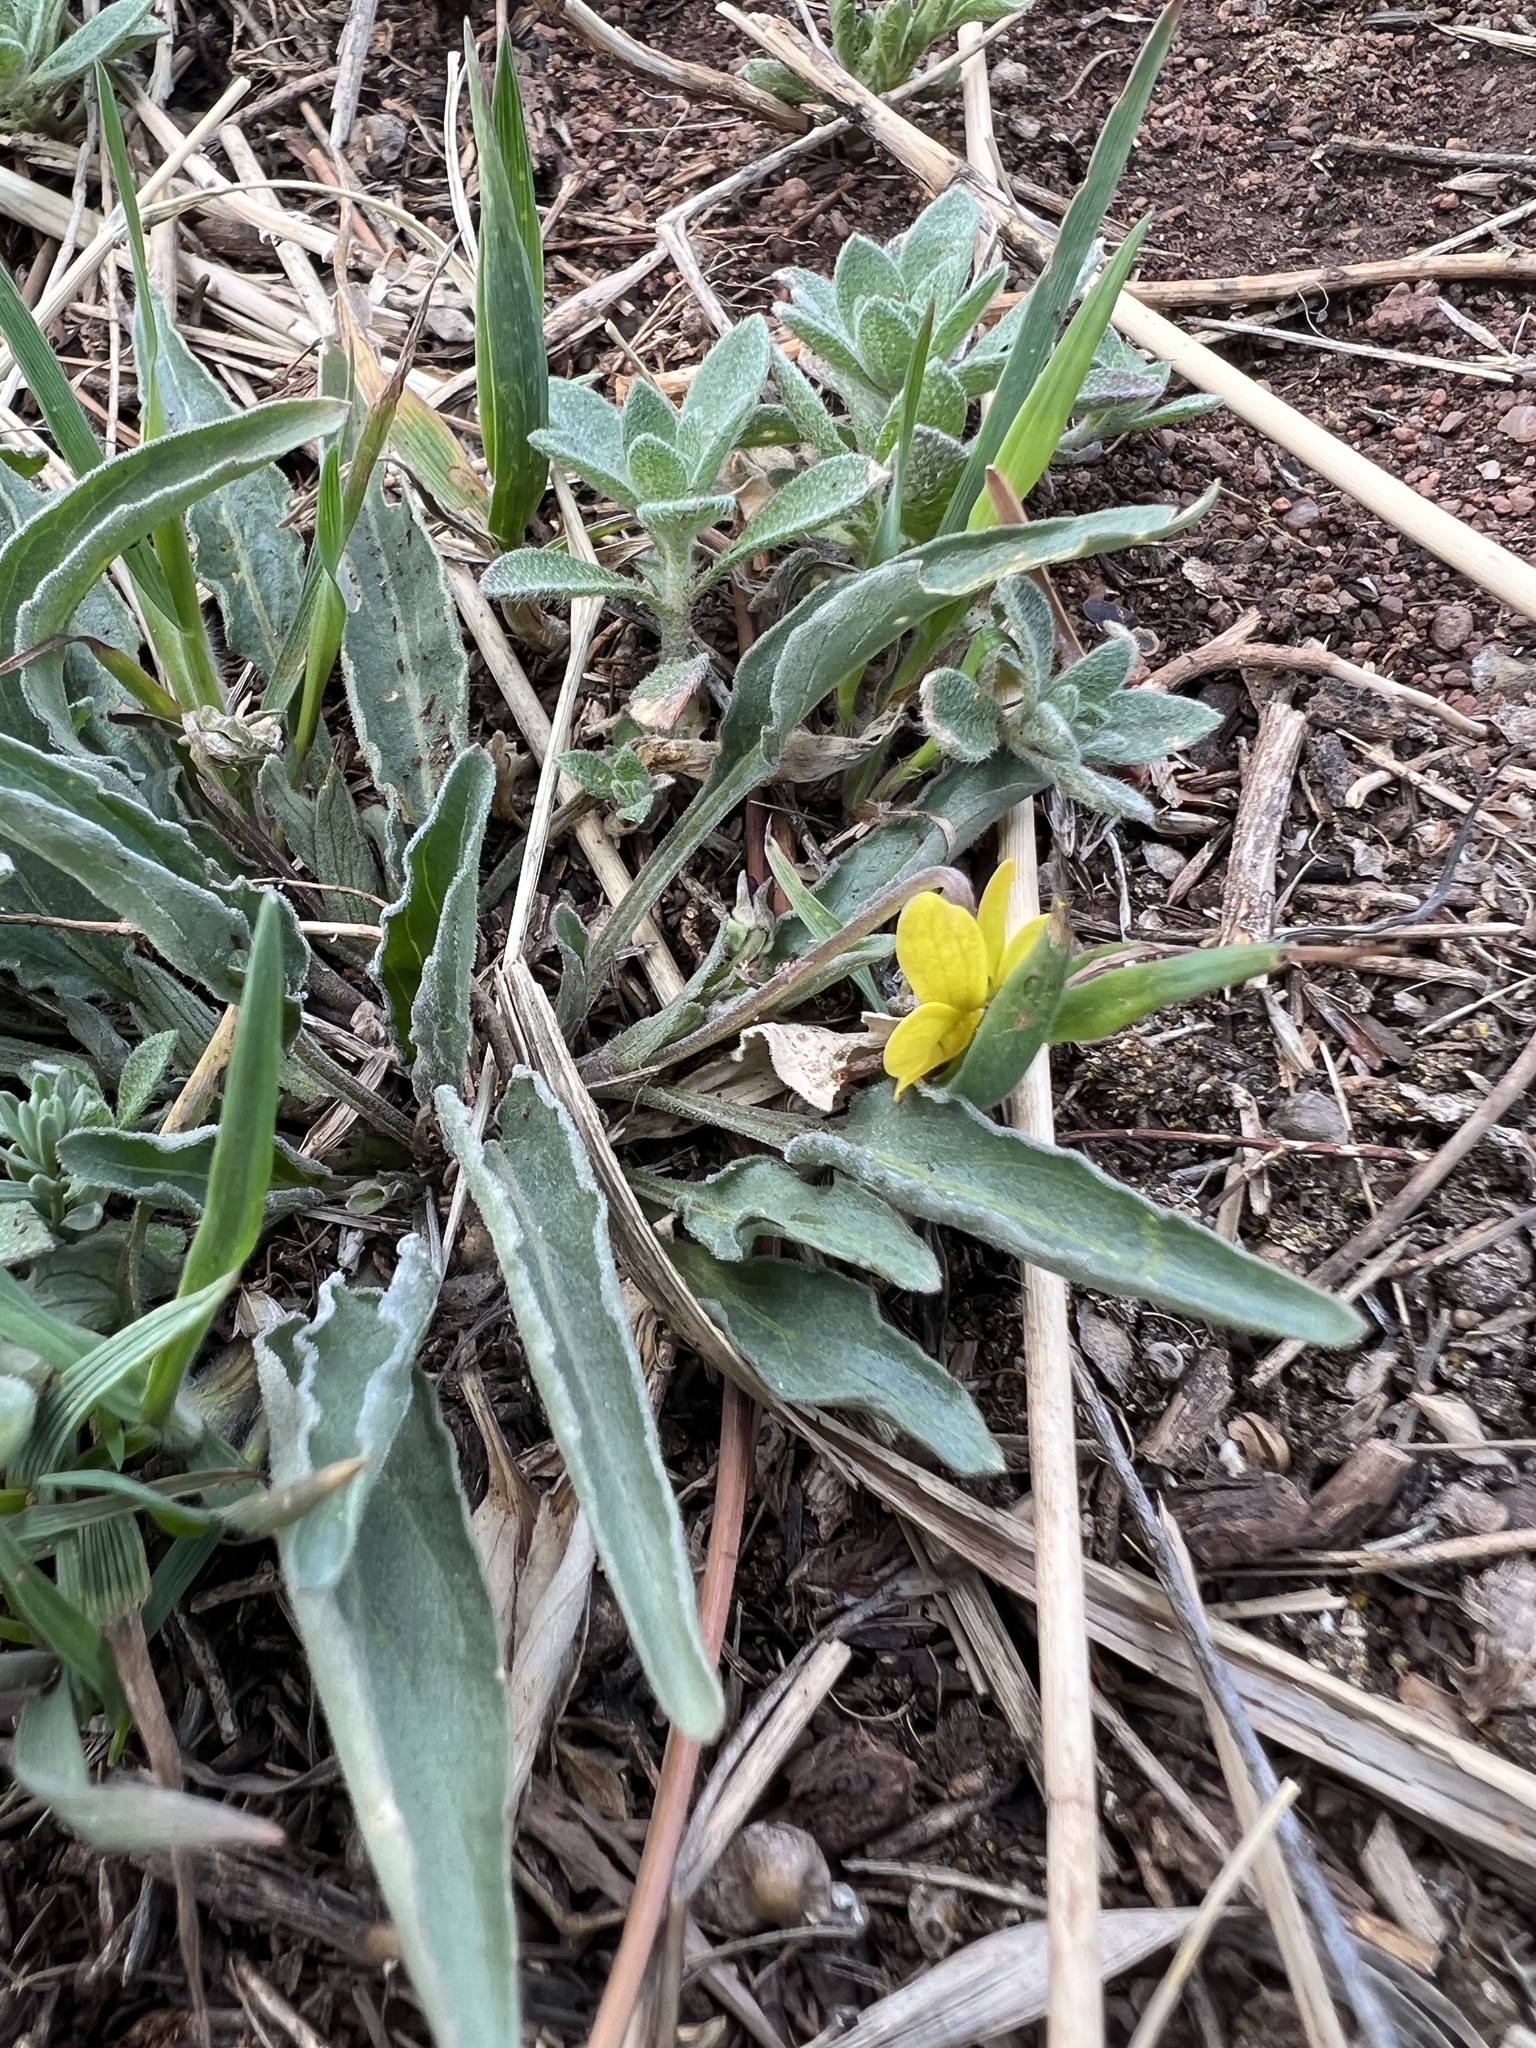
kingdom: Plantae
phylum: Tracheophyta
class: Magnoliopsida
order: Malpighiales
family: Violaceae
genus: Viola
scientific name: Viola nuttallii
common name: Yellow prairie violet
